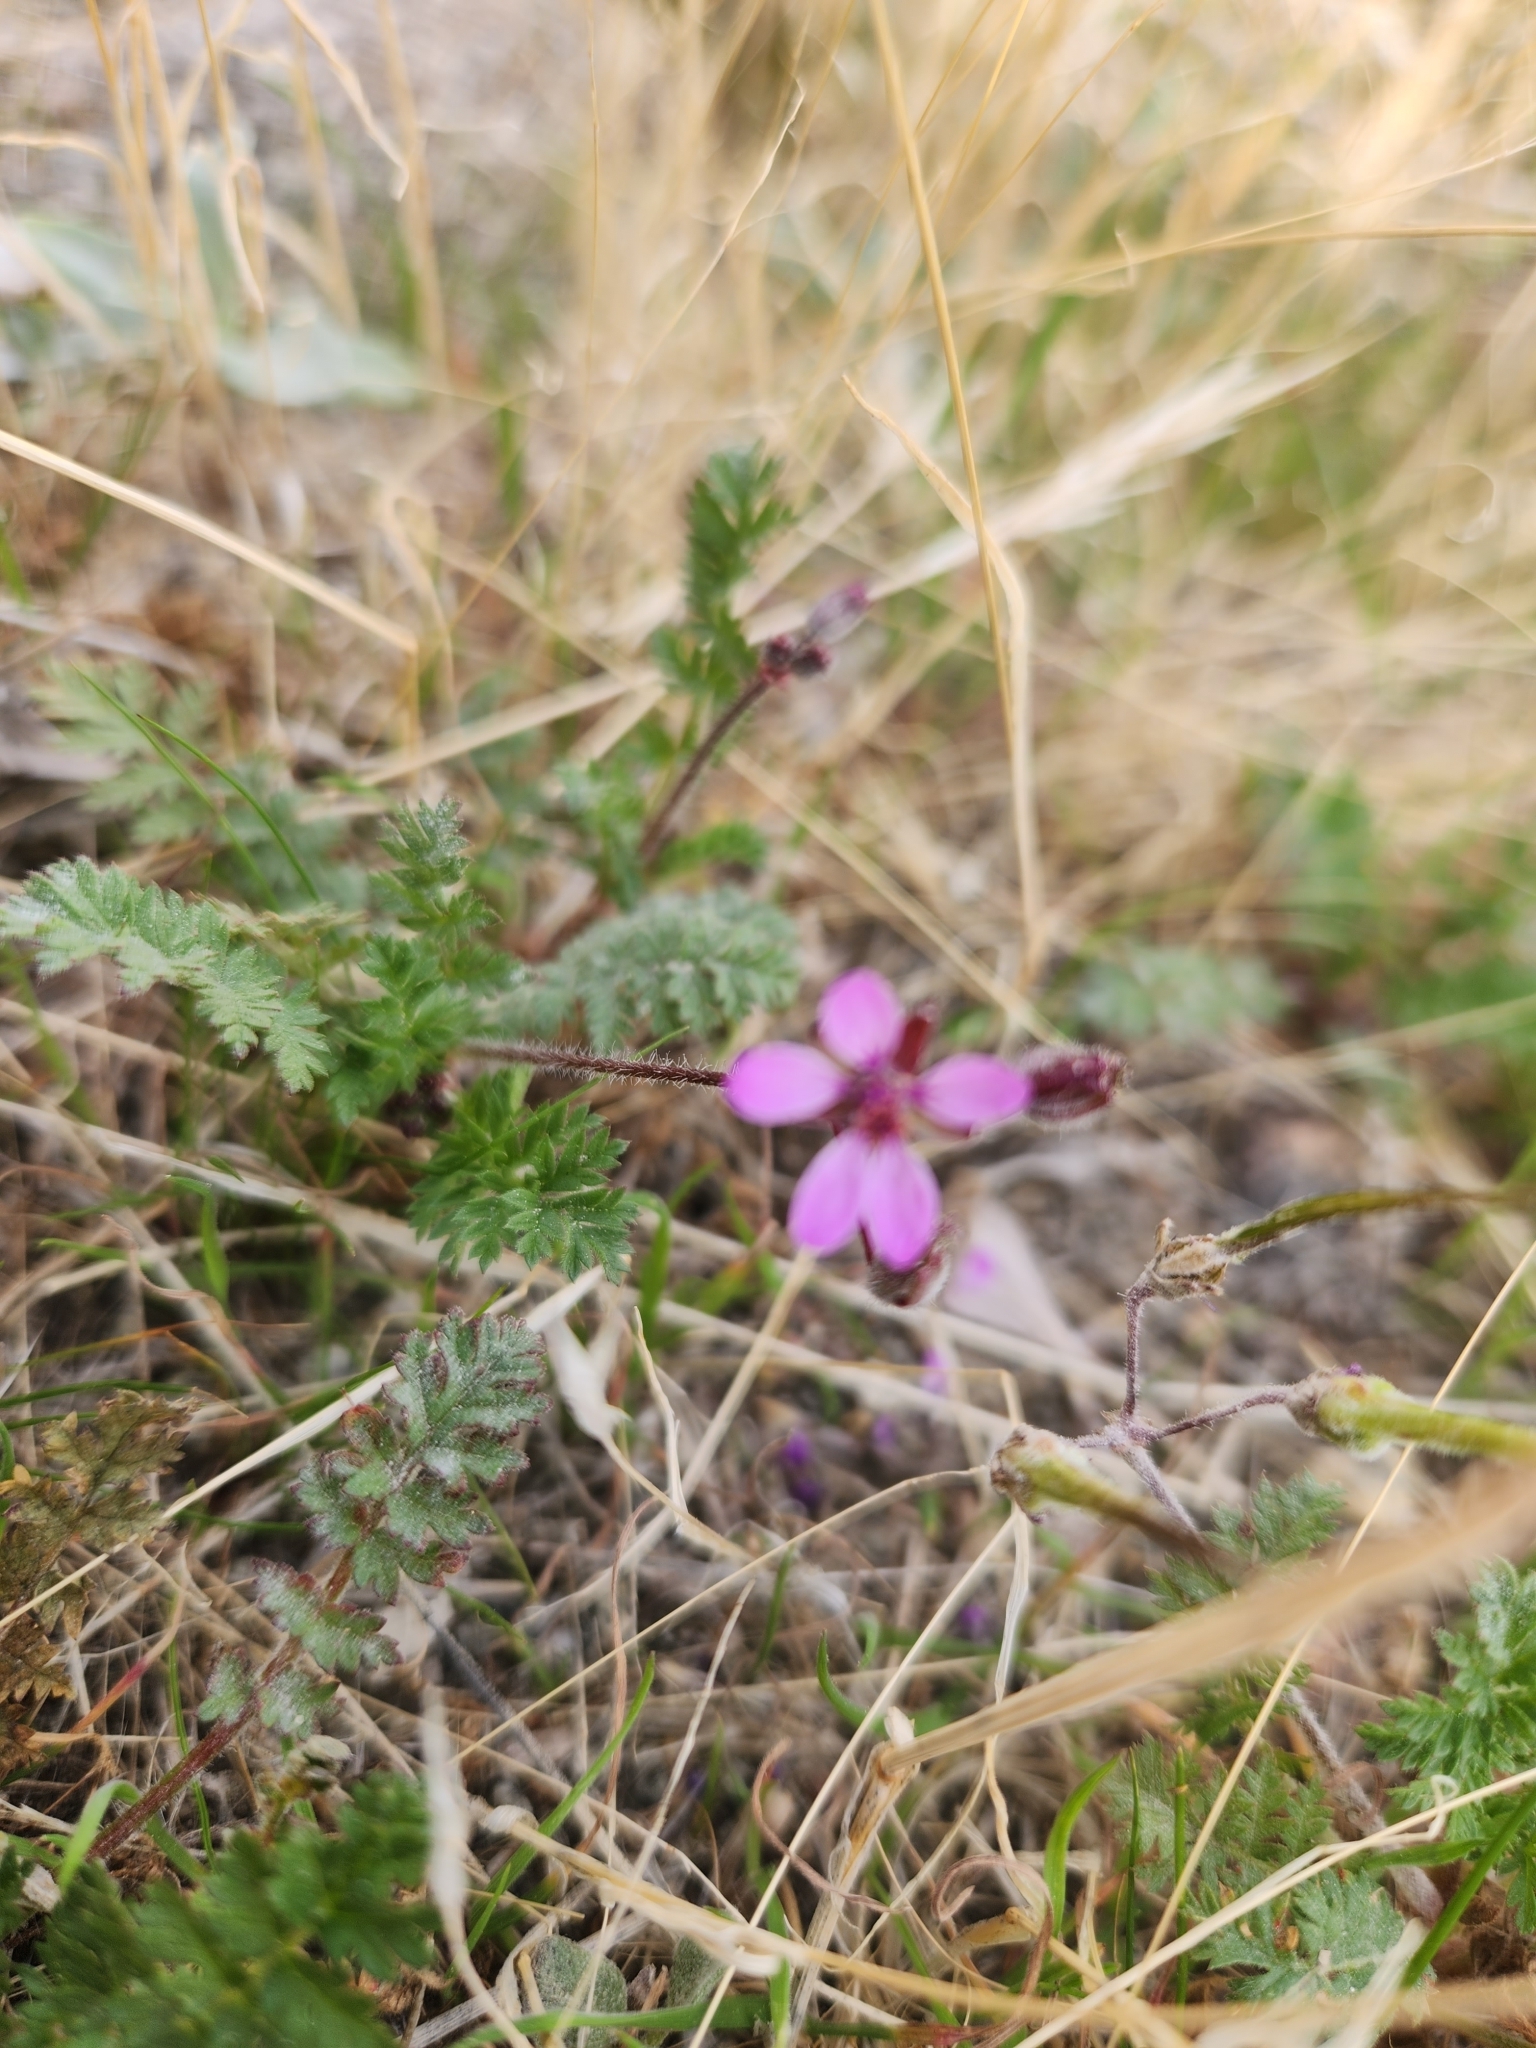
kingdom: Plantae
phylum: Tracheophyta
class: Magnoliopsida
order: Geraniales
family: Geraniaceae
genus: Erodium
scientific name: Erodium cicutarium
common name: Common stork's-bill
